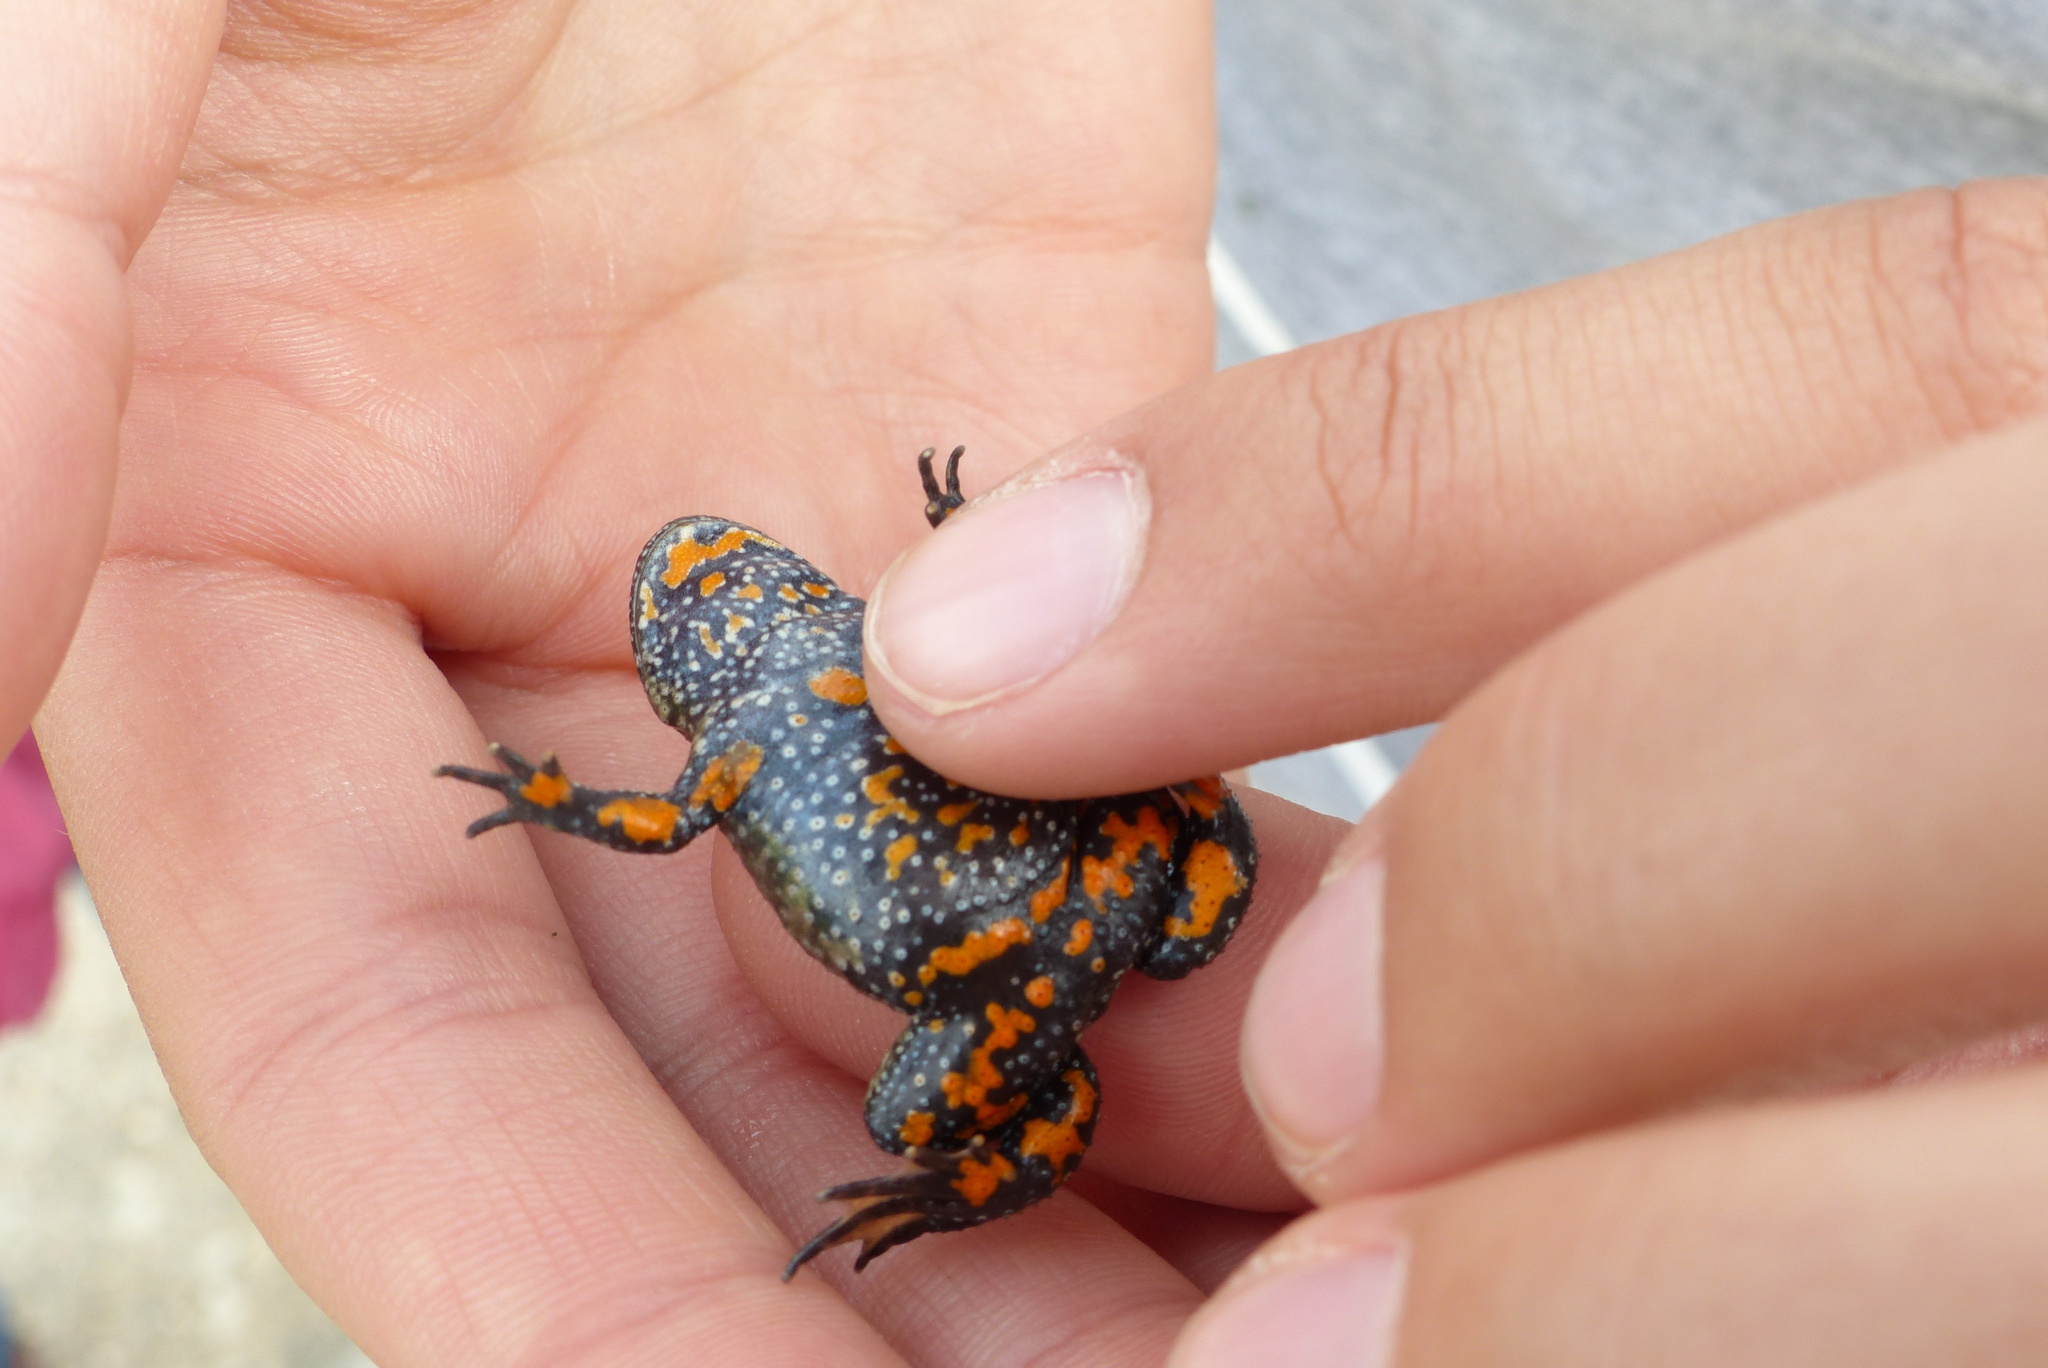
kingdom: Animalia
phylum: Chordata
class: Amphibia
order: Anura
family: Bombinatoridae
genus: Bombina
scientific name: Bombina bombina
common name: Fire-bellied toad
